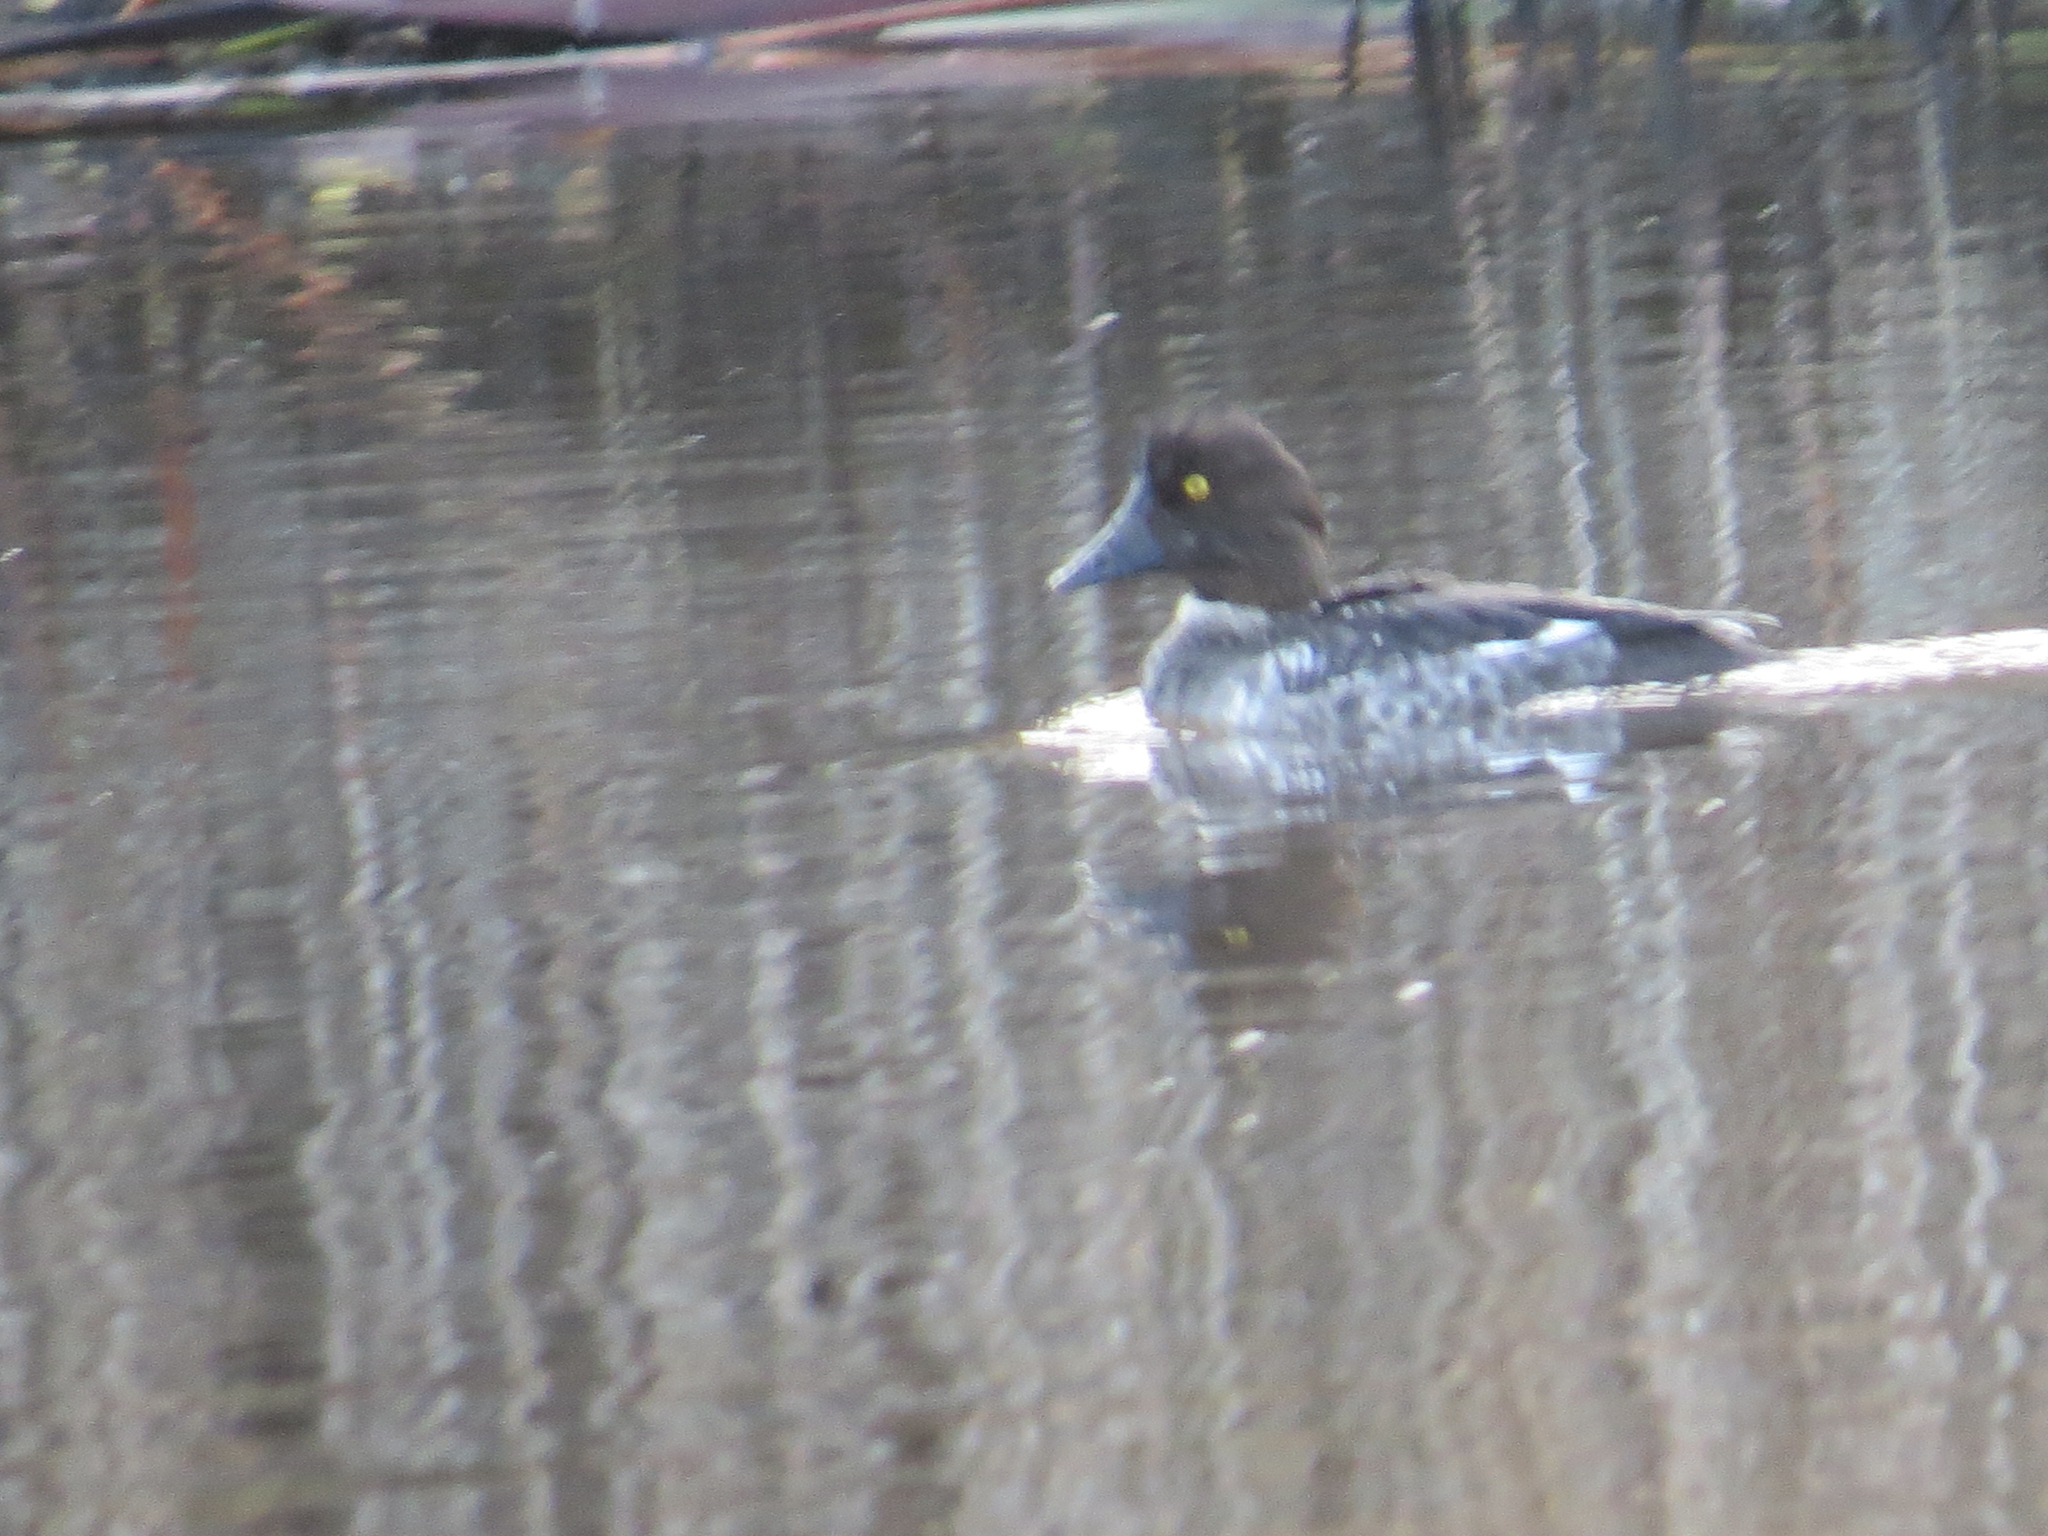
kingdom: Animalia
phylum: Chordata
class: Aves
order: Anseriformes
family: Anatidae
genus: Bucephala
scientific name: Bucephala clangula
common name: Common goldeneye
